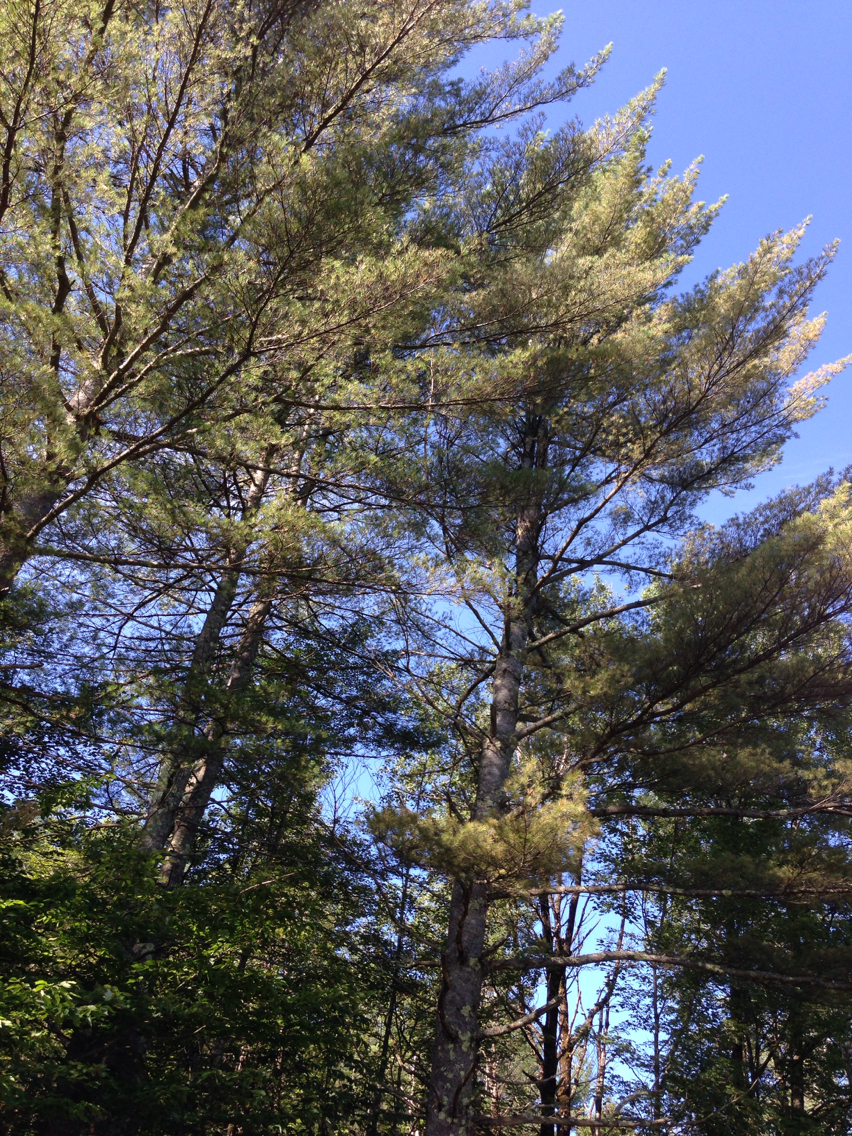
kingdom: Plantae
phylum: Tracheophyta
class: Pinopsida
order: Pinales
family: Pinaceae
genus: Pinus
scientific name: Pinus strobus
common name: Weymouth pine
